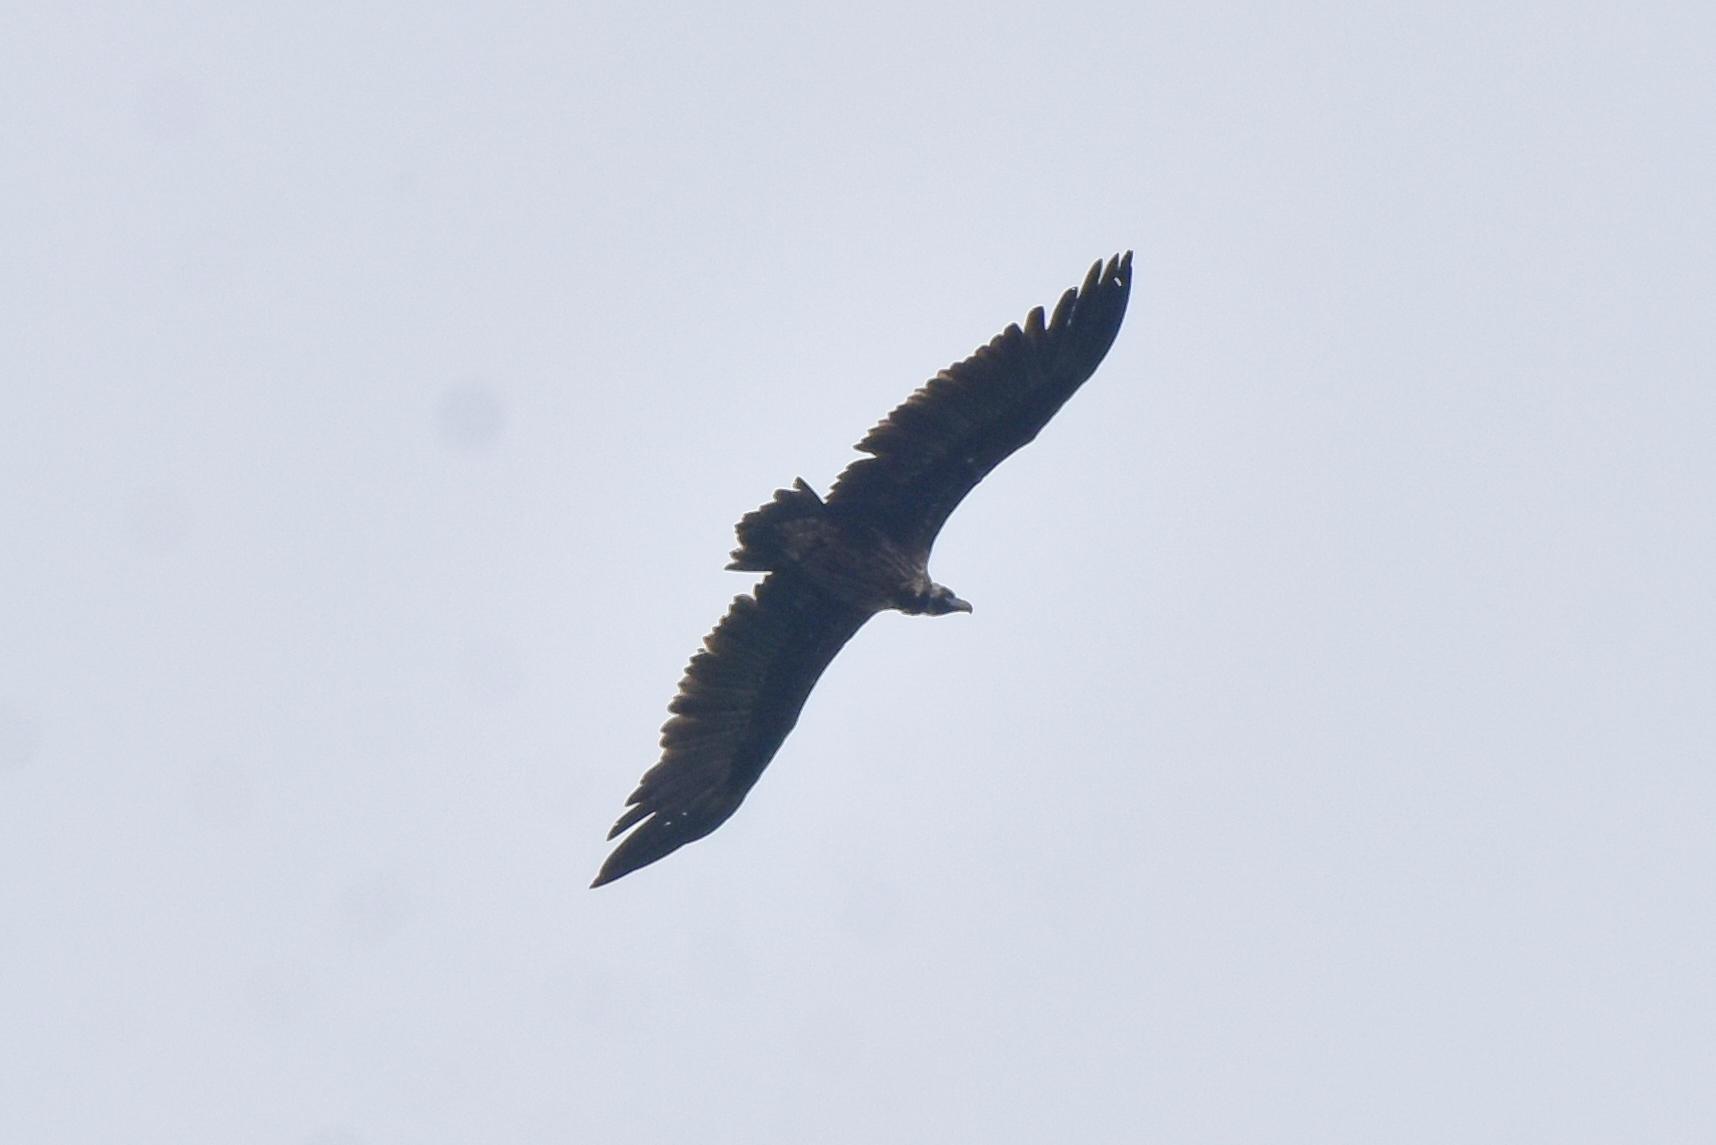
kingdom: Animalia
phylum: Chordata
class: Aves
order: Accipitriformes
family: Accipitridae
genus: Aegypius
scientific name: Aegypius monachus
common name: Cinereous vulture
